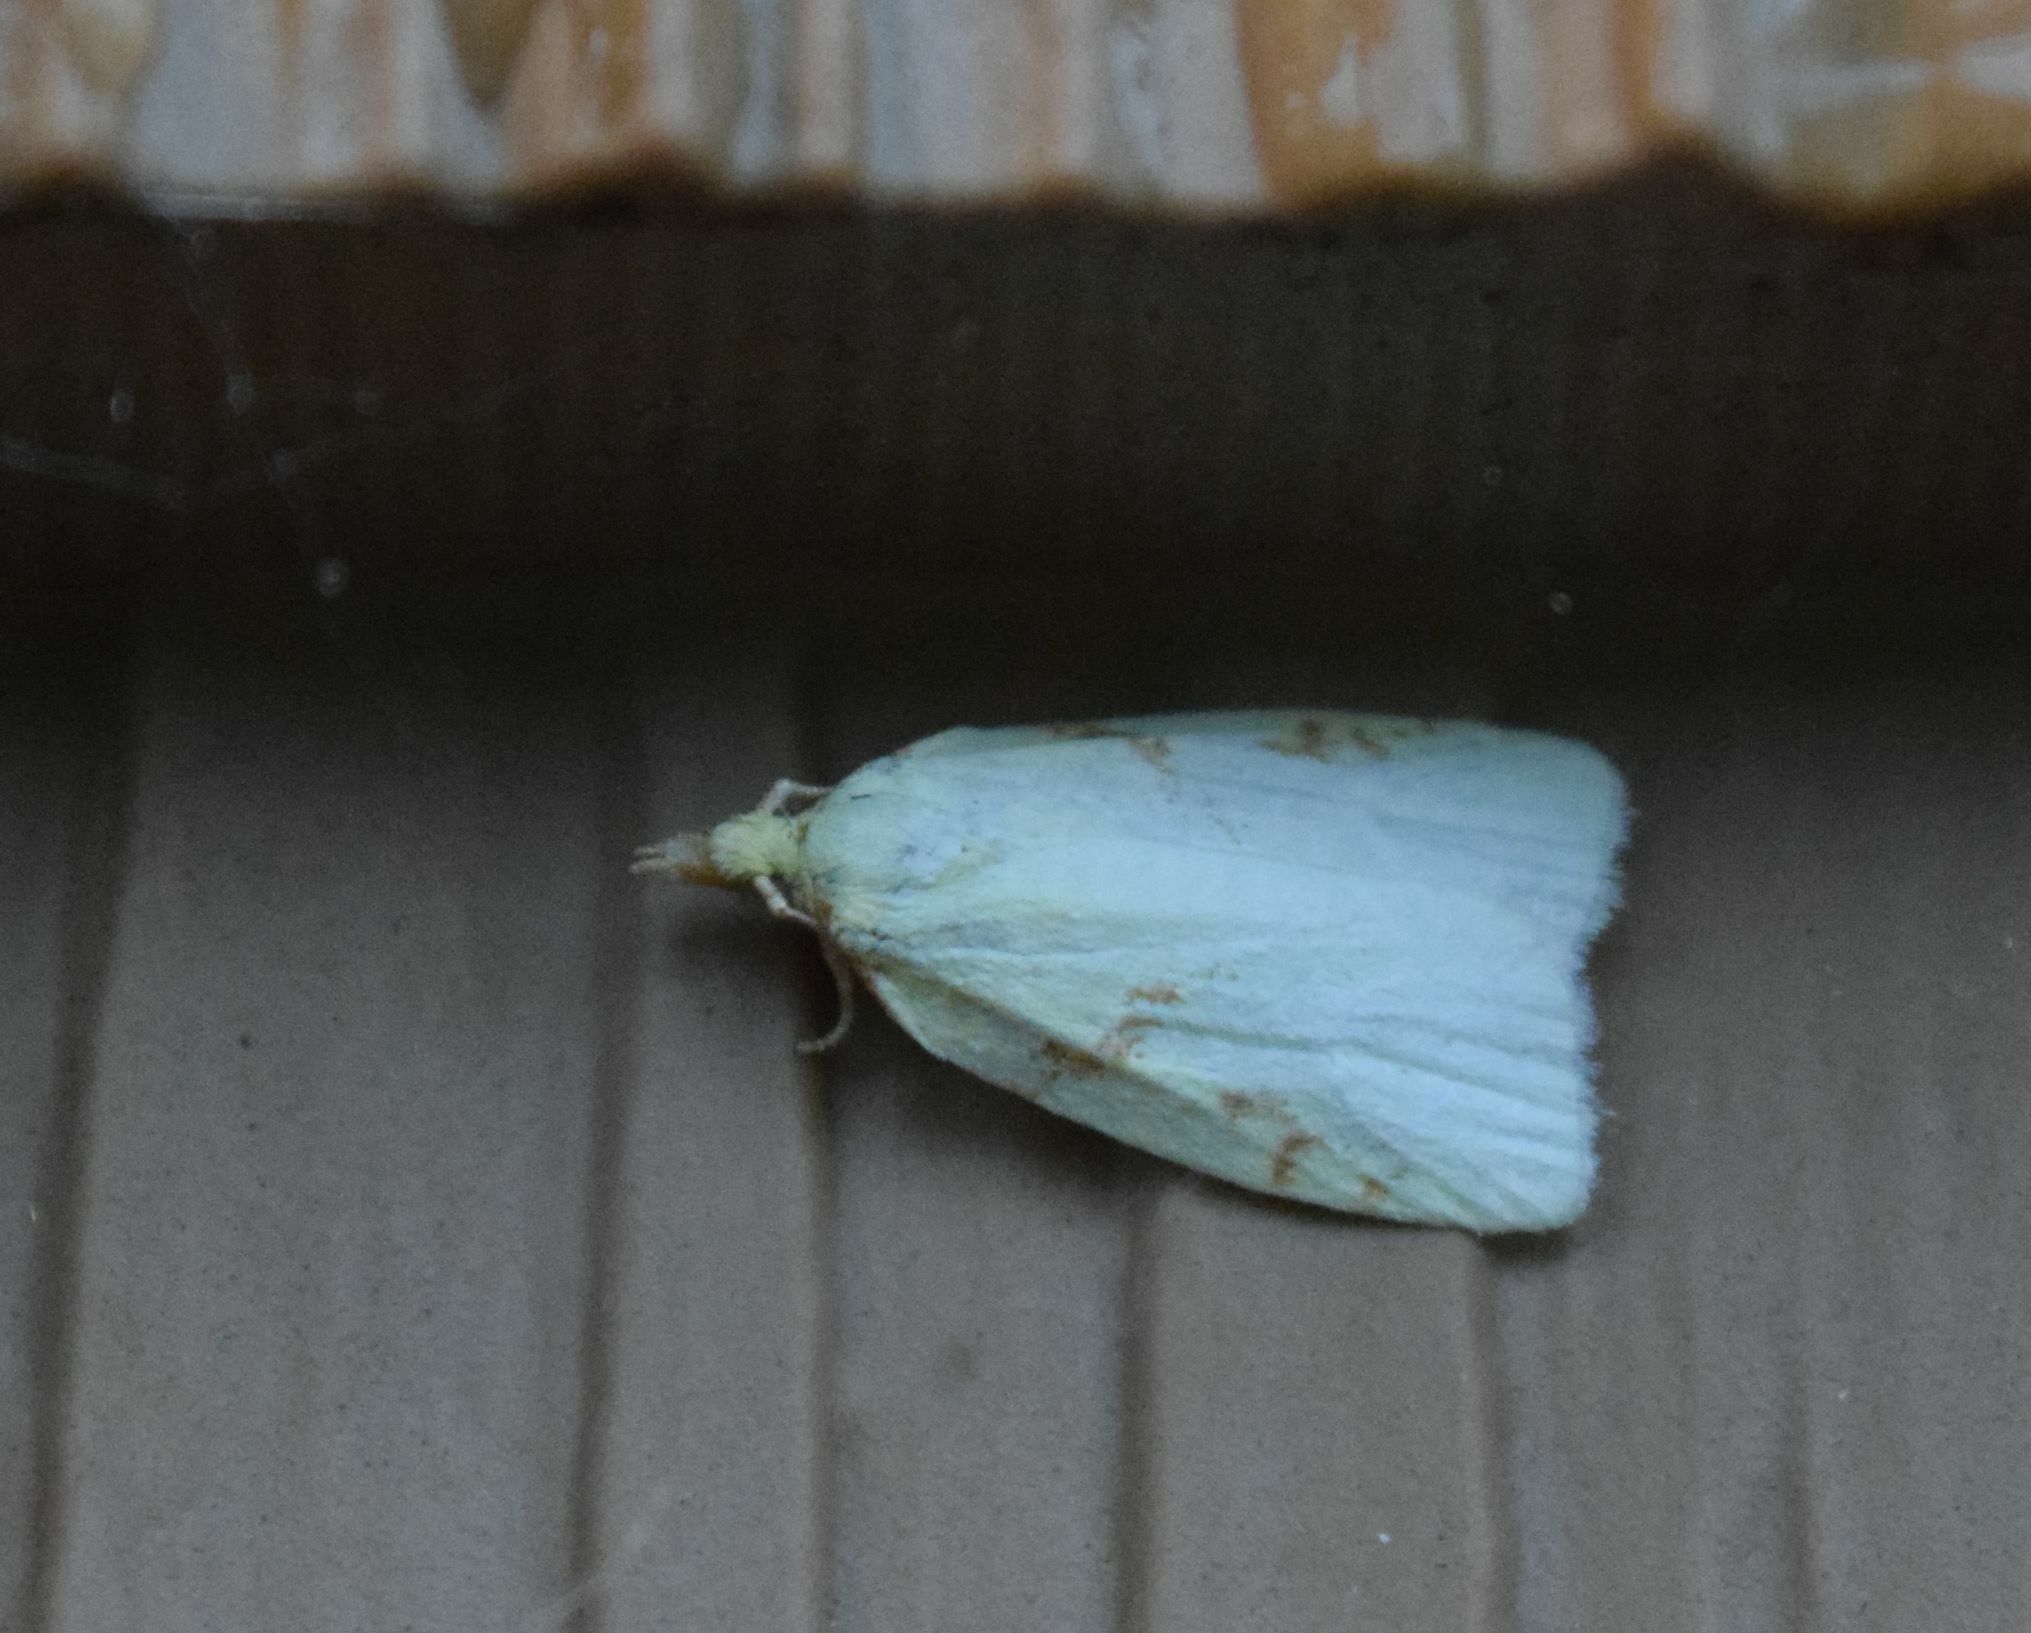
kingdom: Animalia
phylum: Arthropoda
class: Insecta
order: Lepidoptera
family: Tortricidae
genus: Cenopis
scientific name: Cenopis pettitana
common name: Maple-basswood leafroller moth
